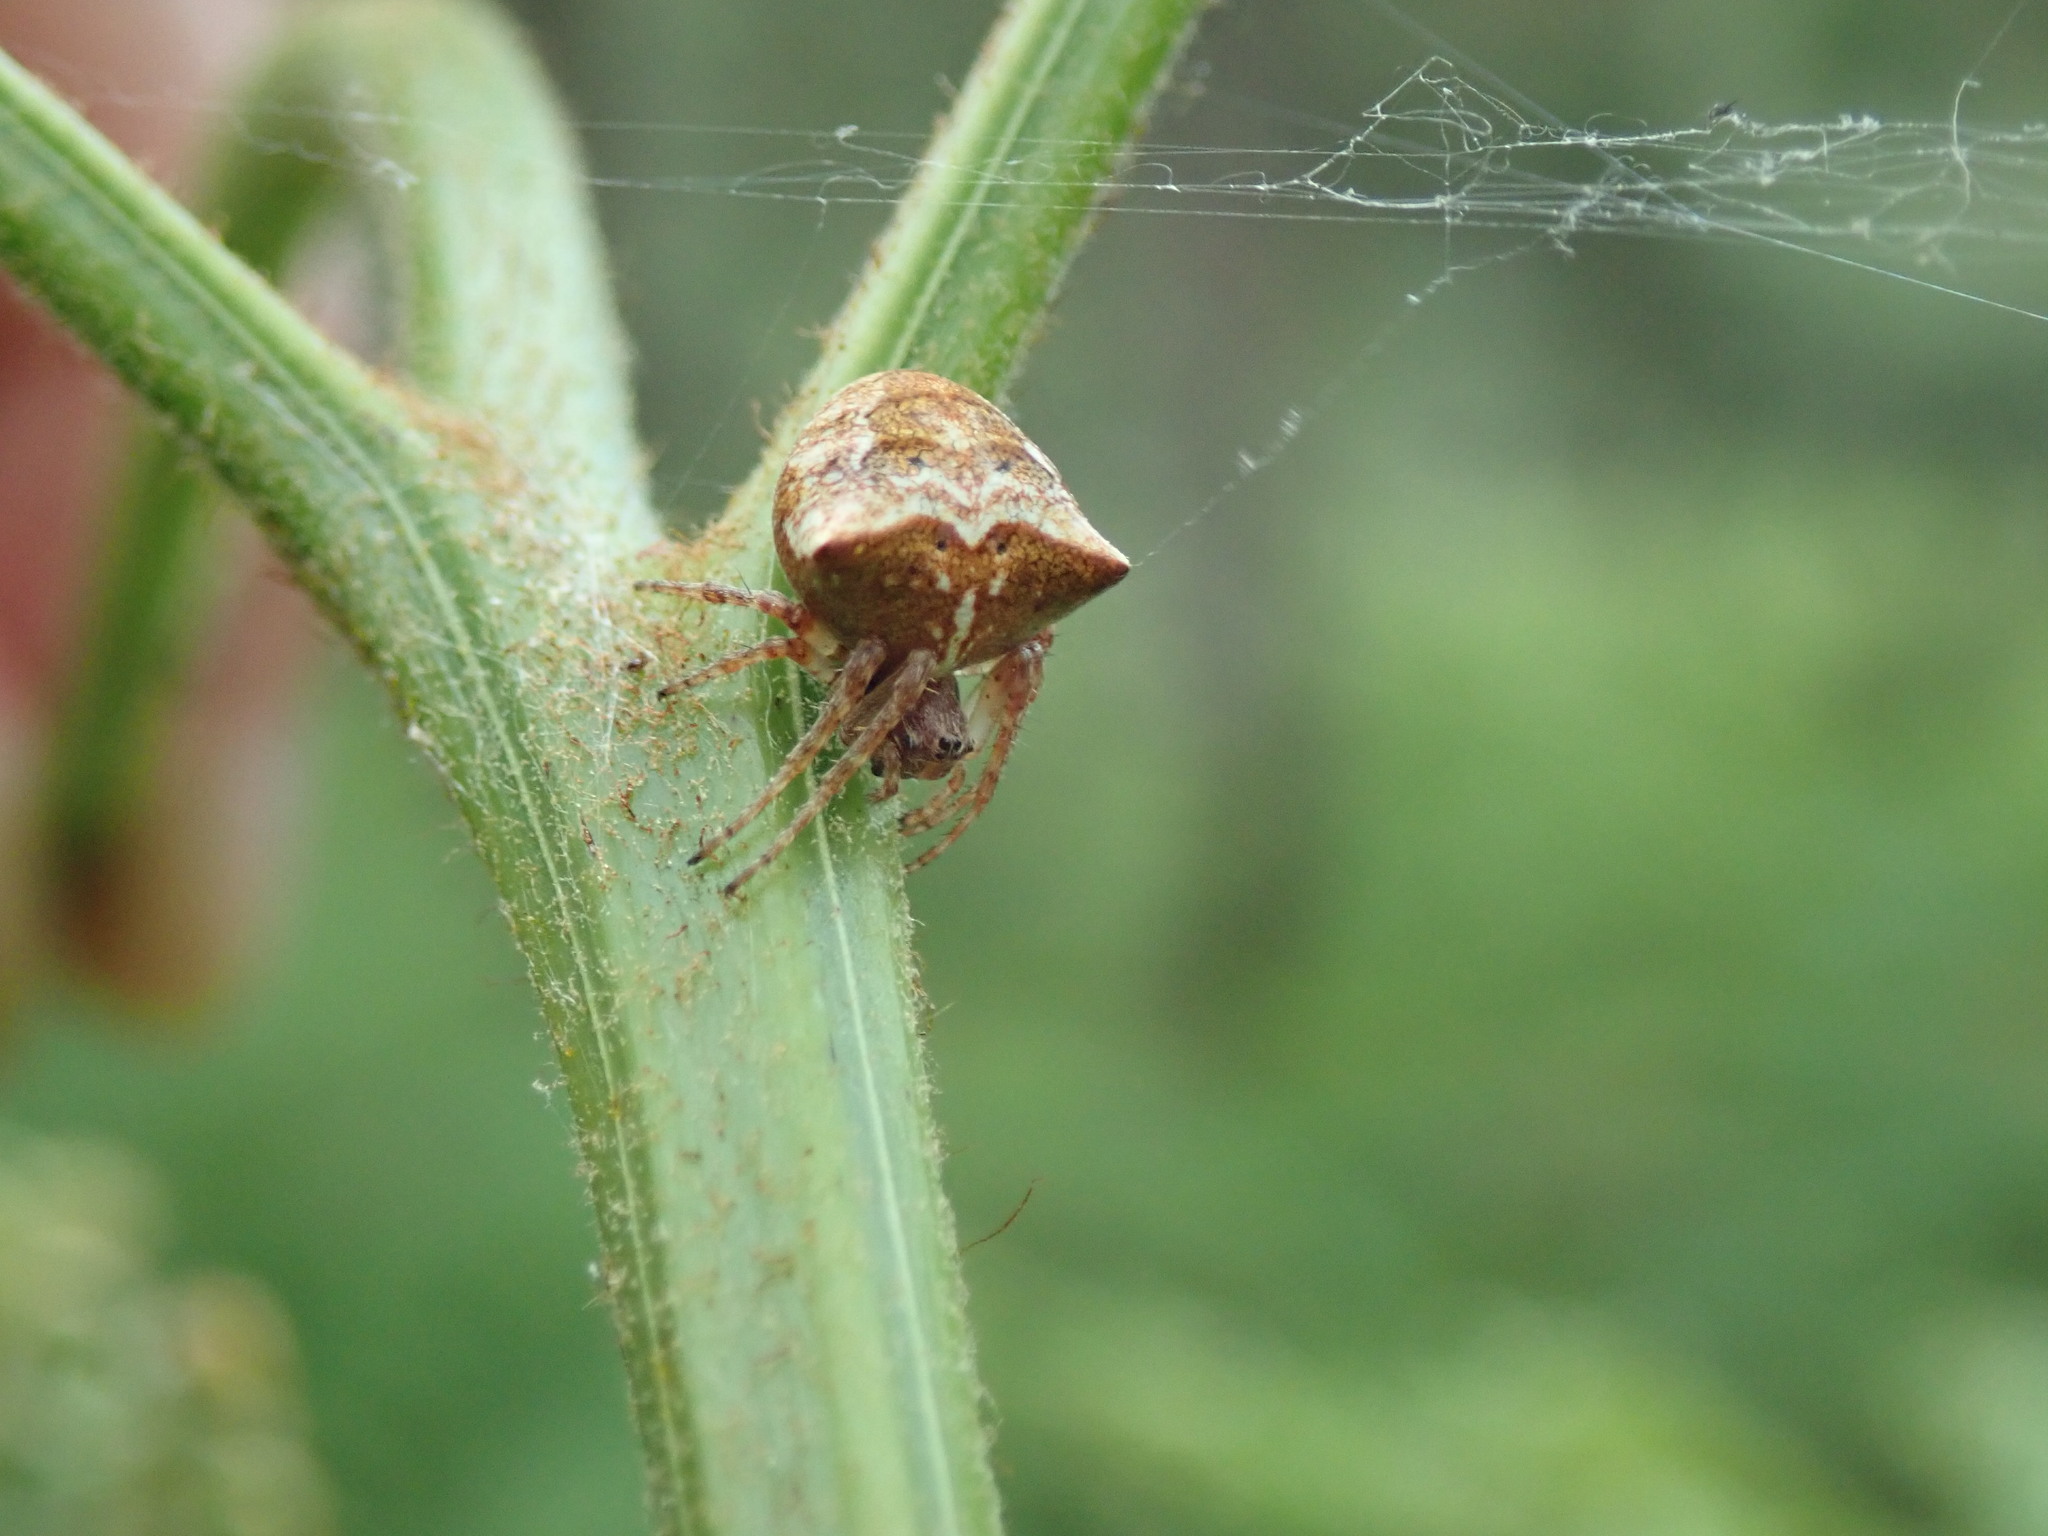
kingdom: Animalia
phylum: Arthropoda
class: Arachnida
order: Araneae
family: Araneidae
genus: Gibbaranea
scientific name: Gibbaranea bituberculata
